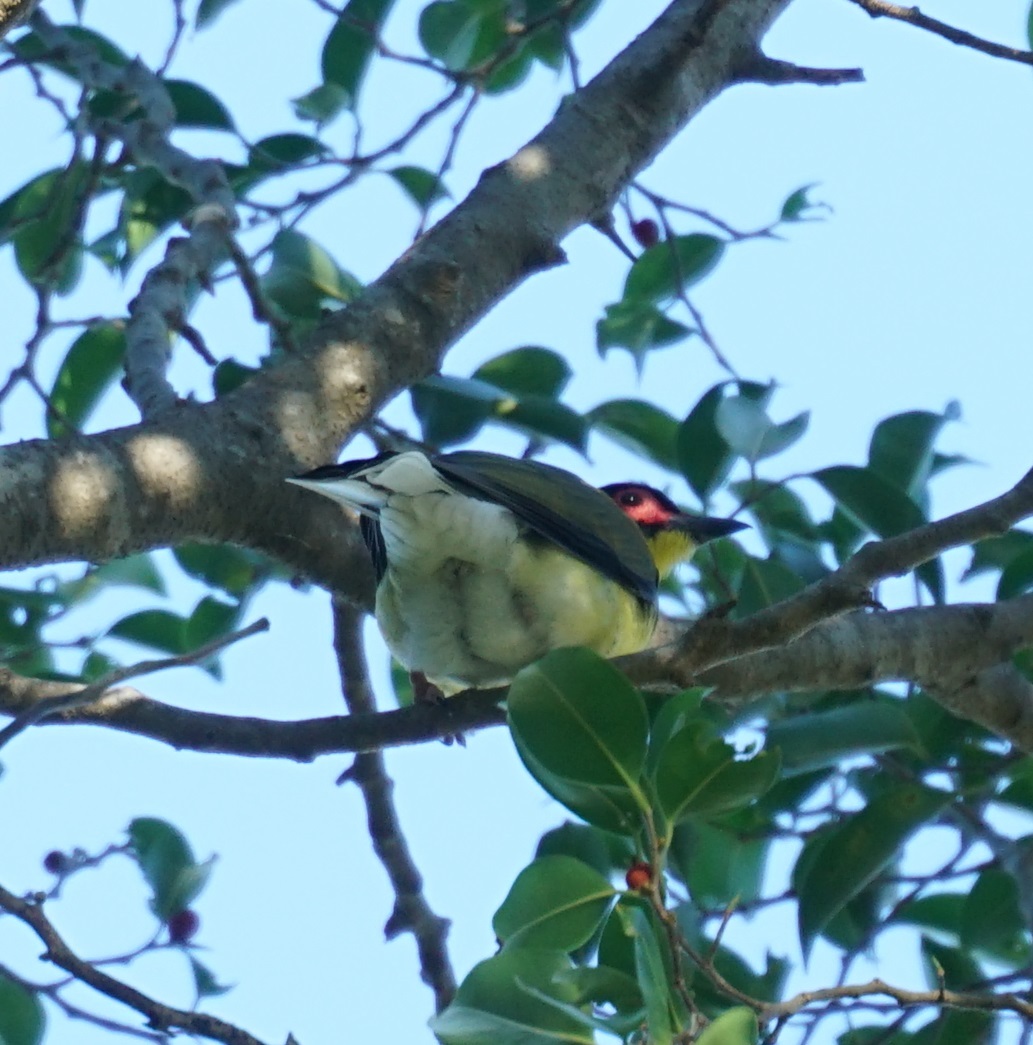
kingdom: Animalia
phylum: Chordata
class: Aves
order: Passeriformes
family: Oriolidae
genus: Sphecotheres
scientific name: Sphecotheres vieilloti
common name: Australasian figbird
